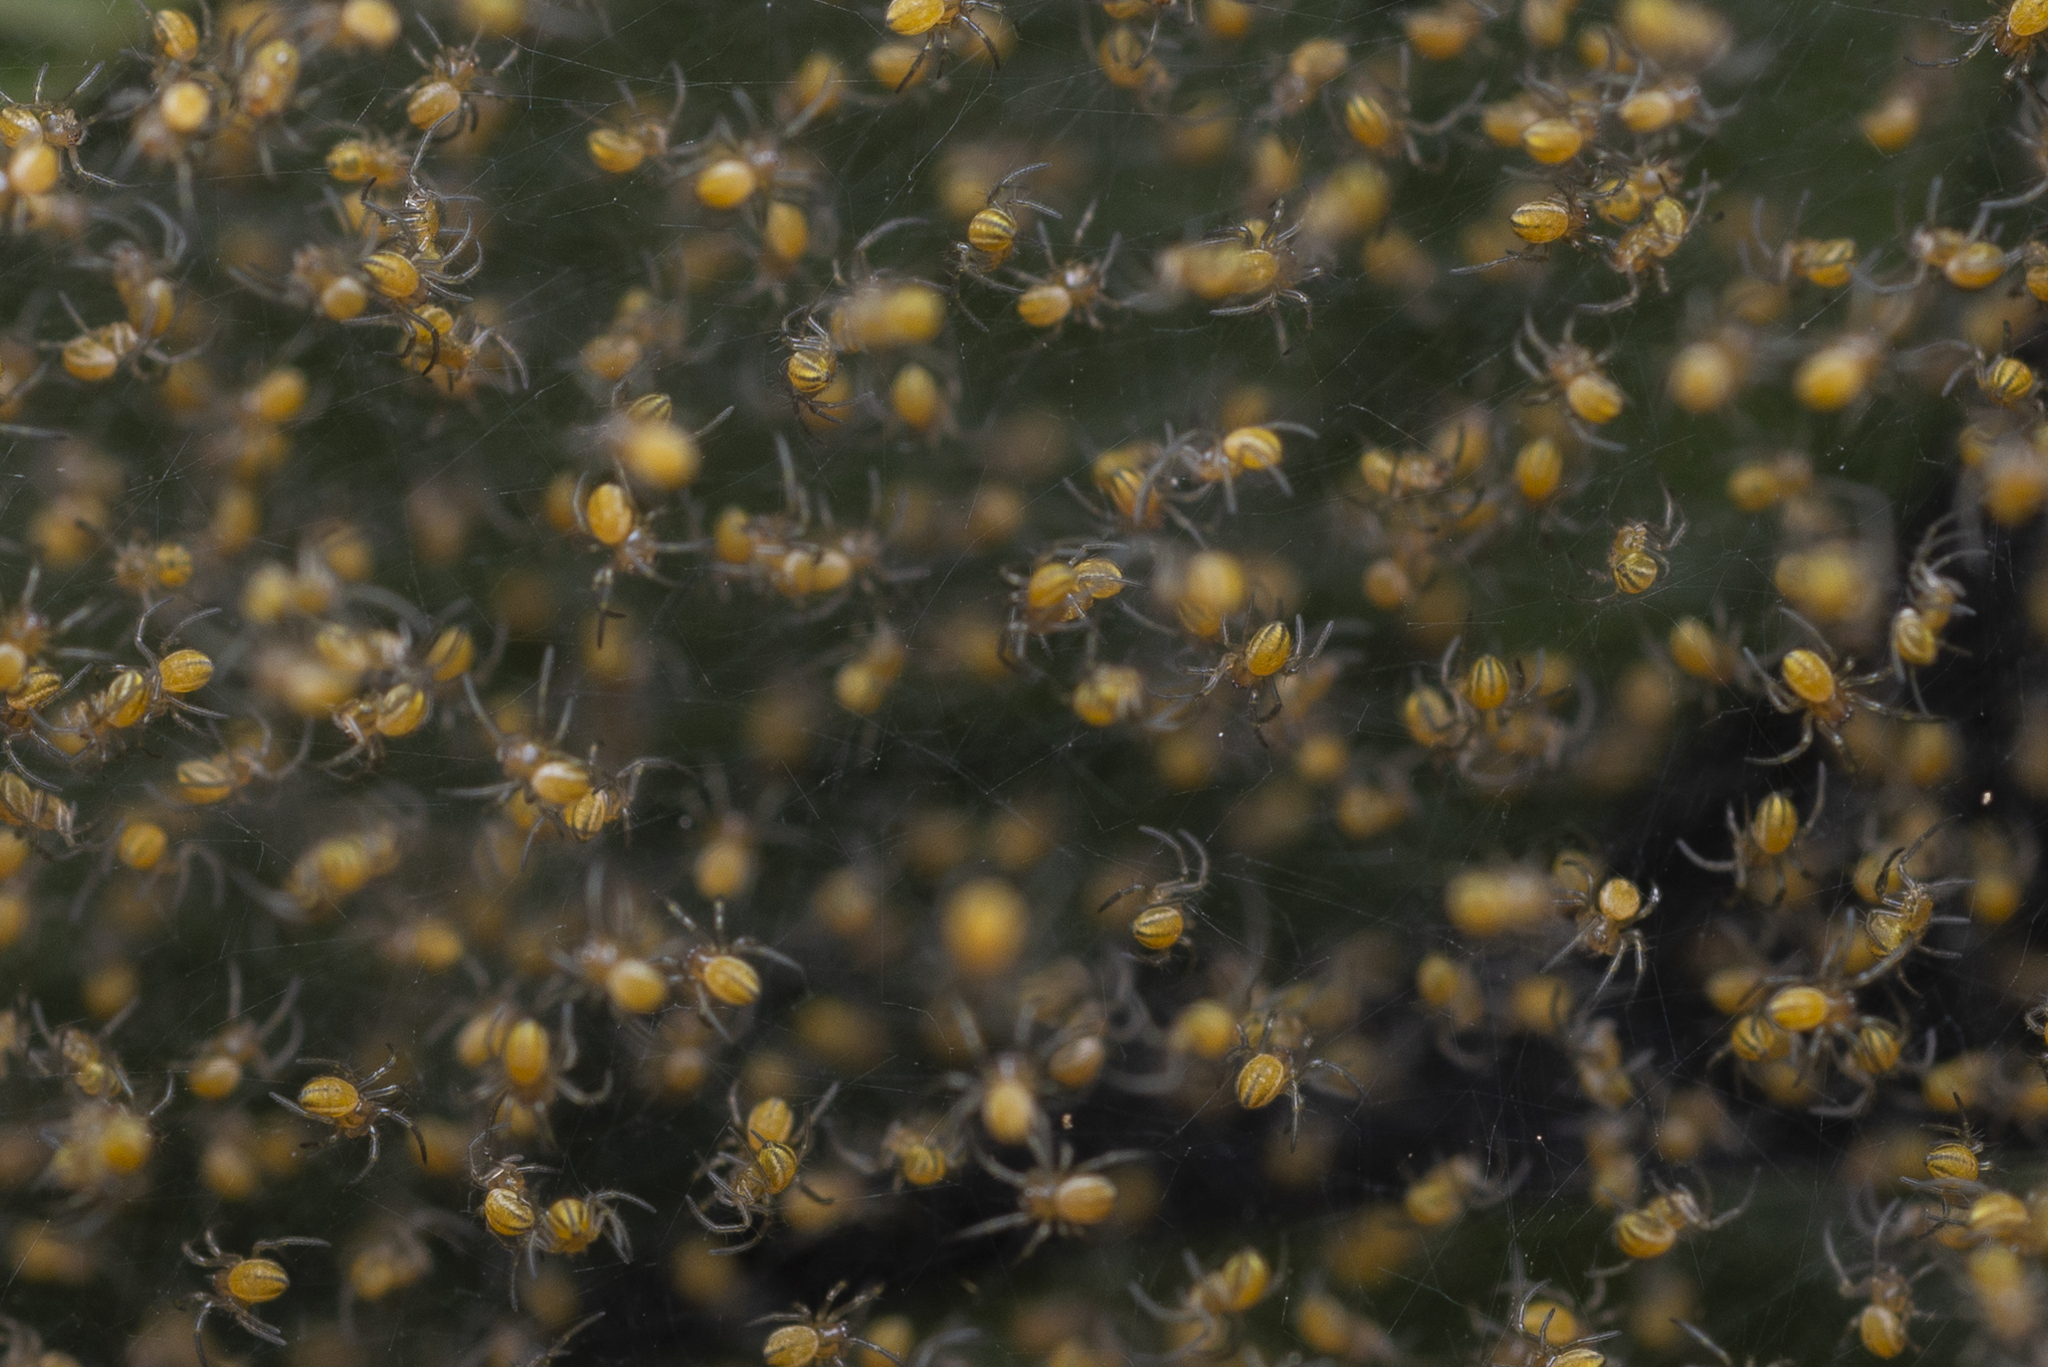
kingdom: Animalia
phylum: Arthropoda
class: Arachnida
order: Araneae
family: Araneidae
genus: Nephila
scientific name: Nephila pilipes
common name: Giant golden orb weaver
